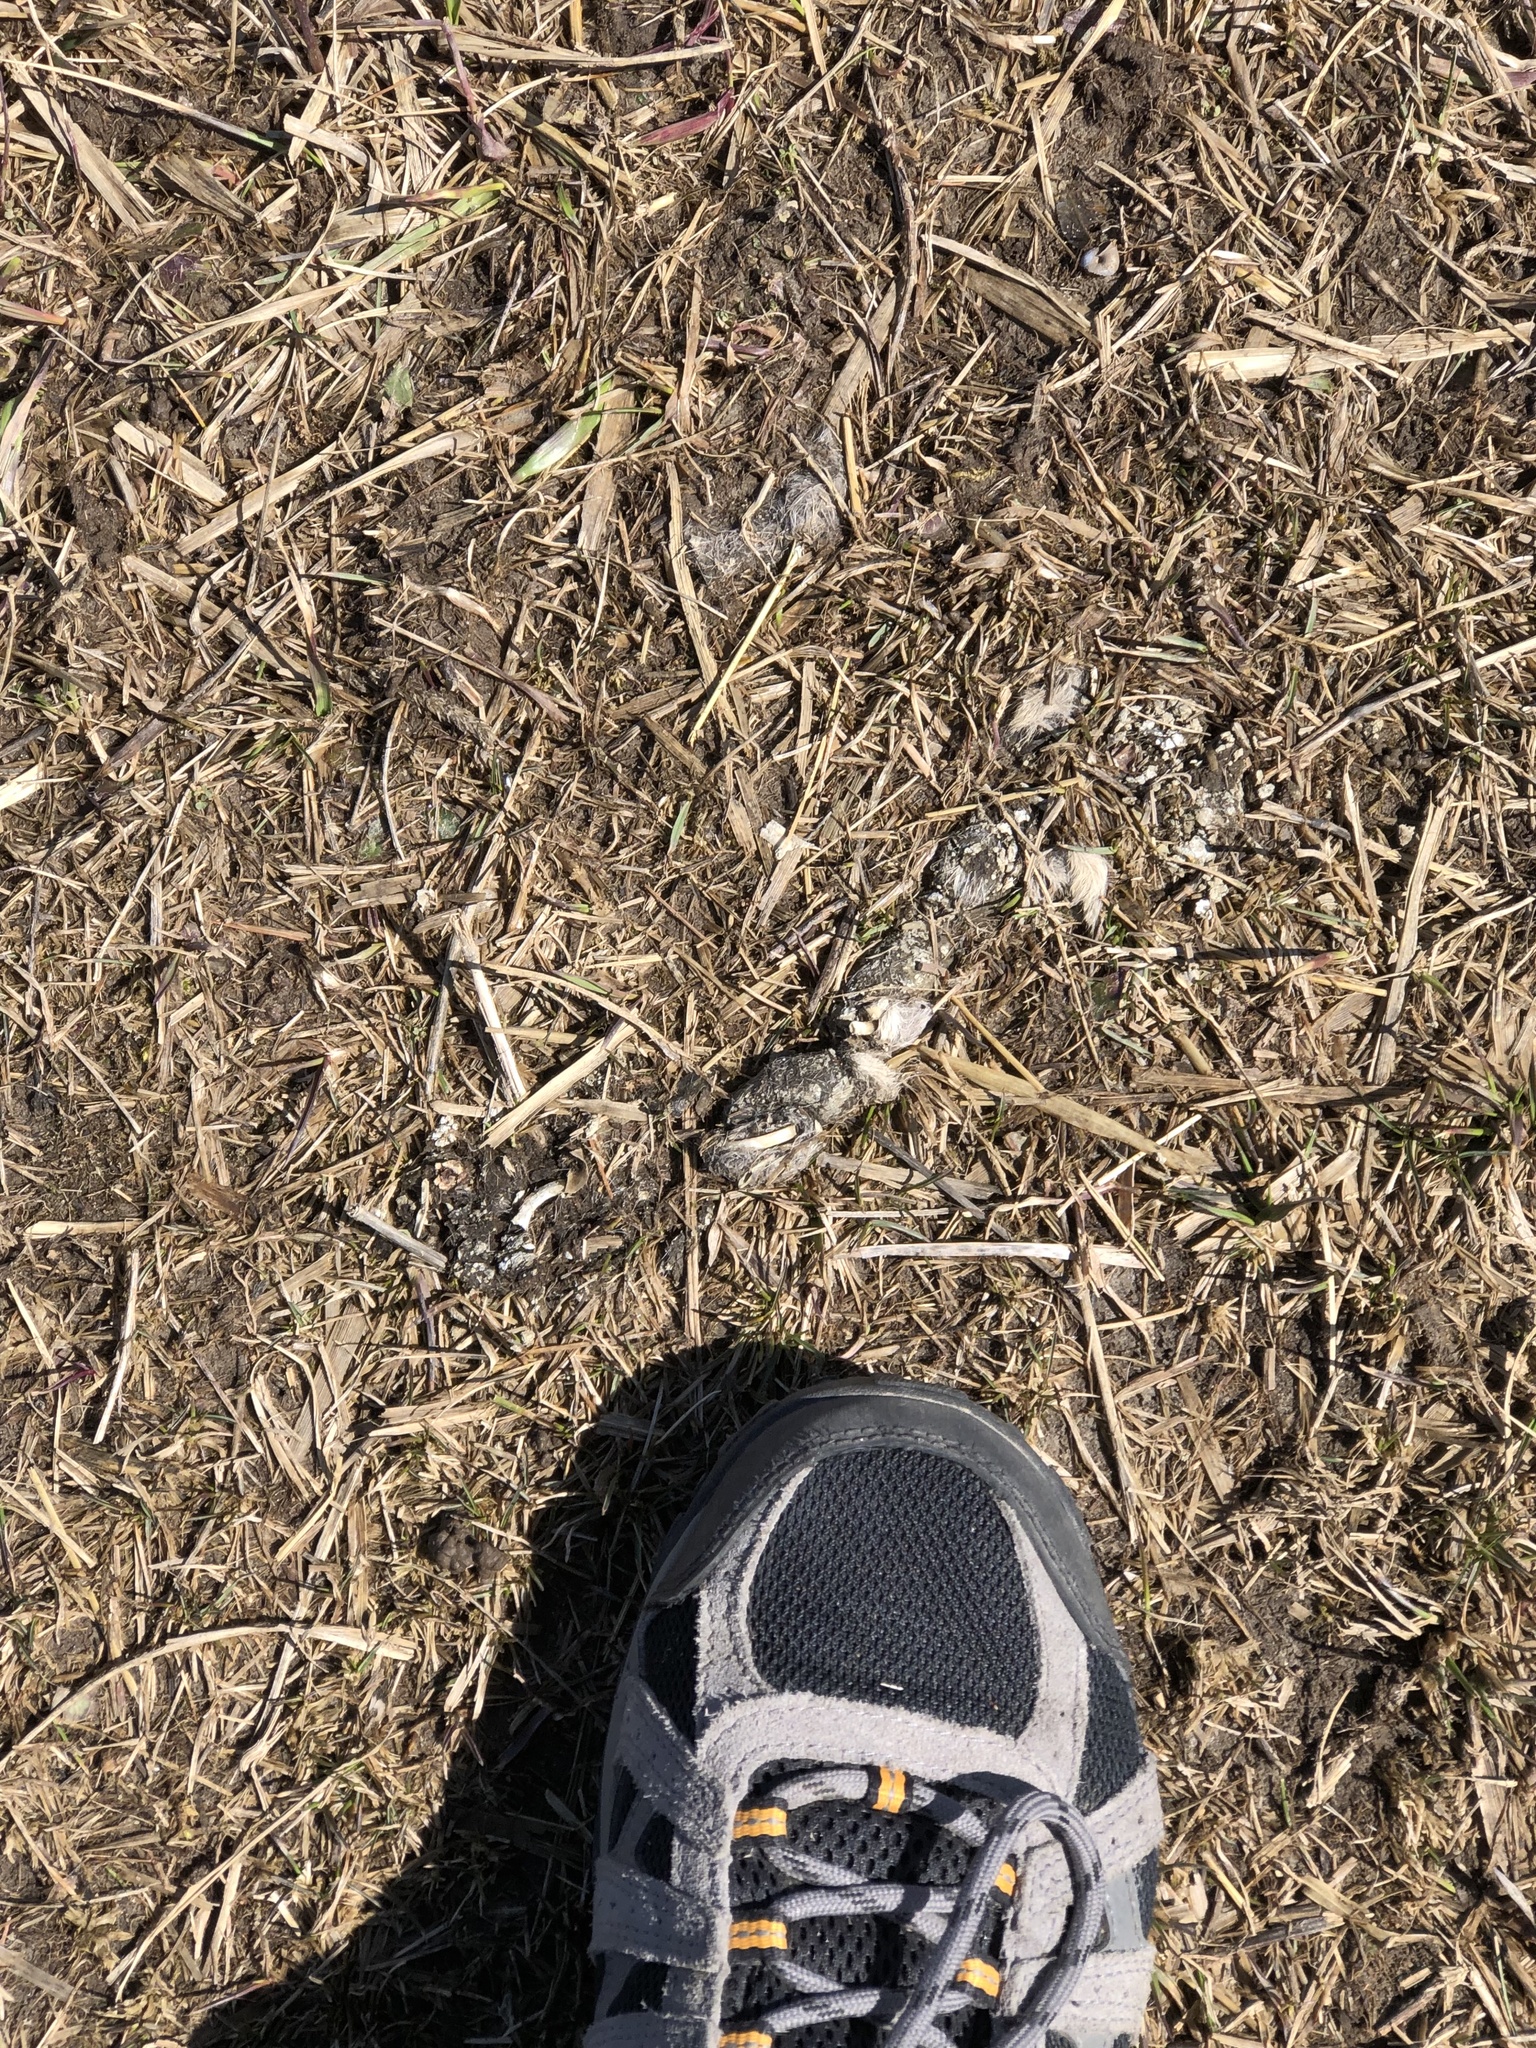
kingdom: Animalia
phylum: Chordata
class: Mammalia
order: Carnivora
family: Canidae
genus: Canis
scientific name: Canis latrans
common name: Coyote
